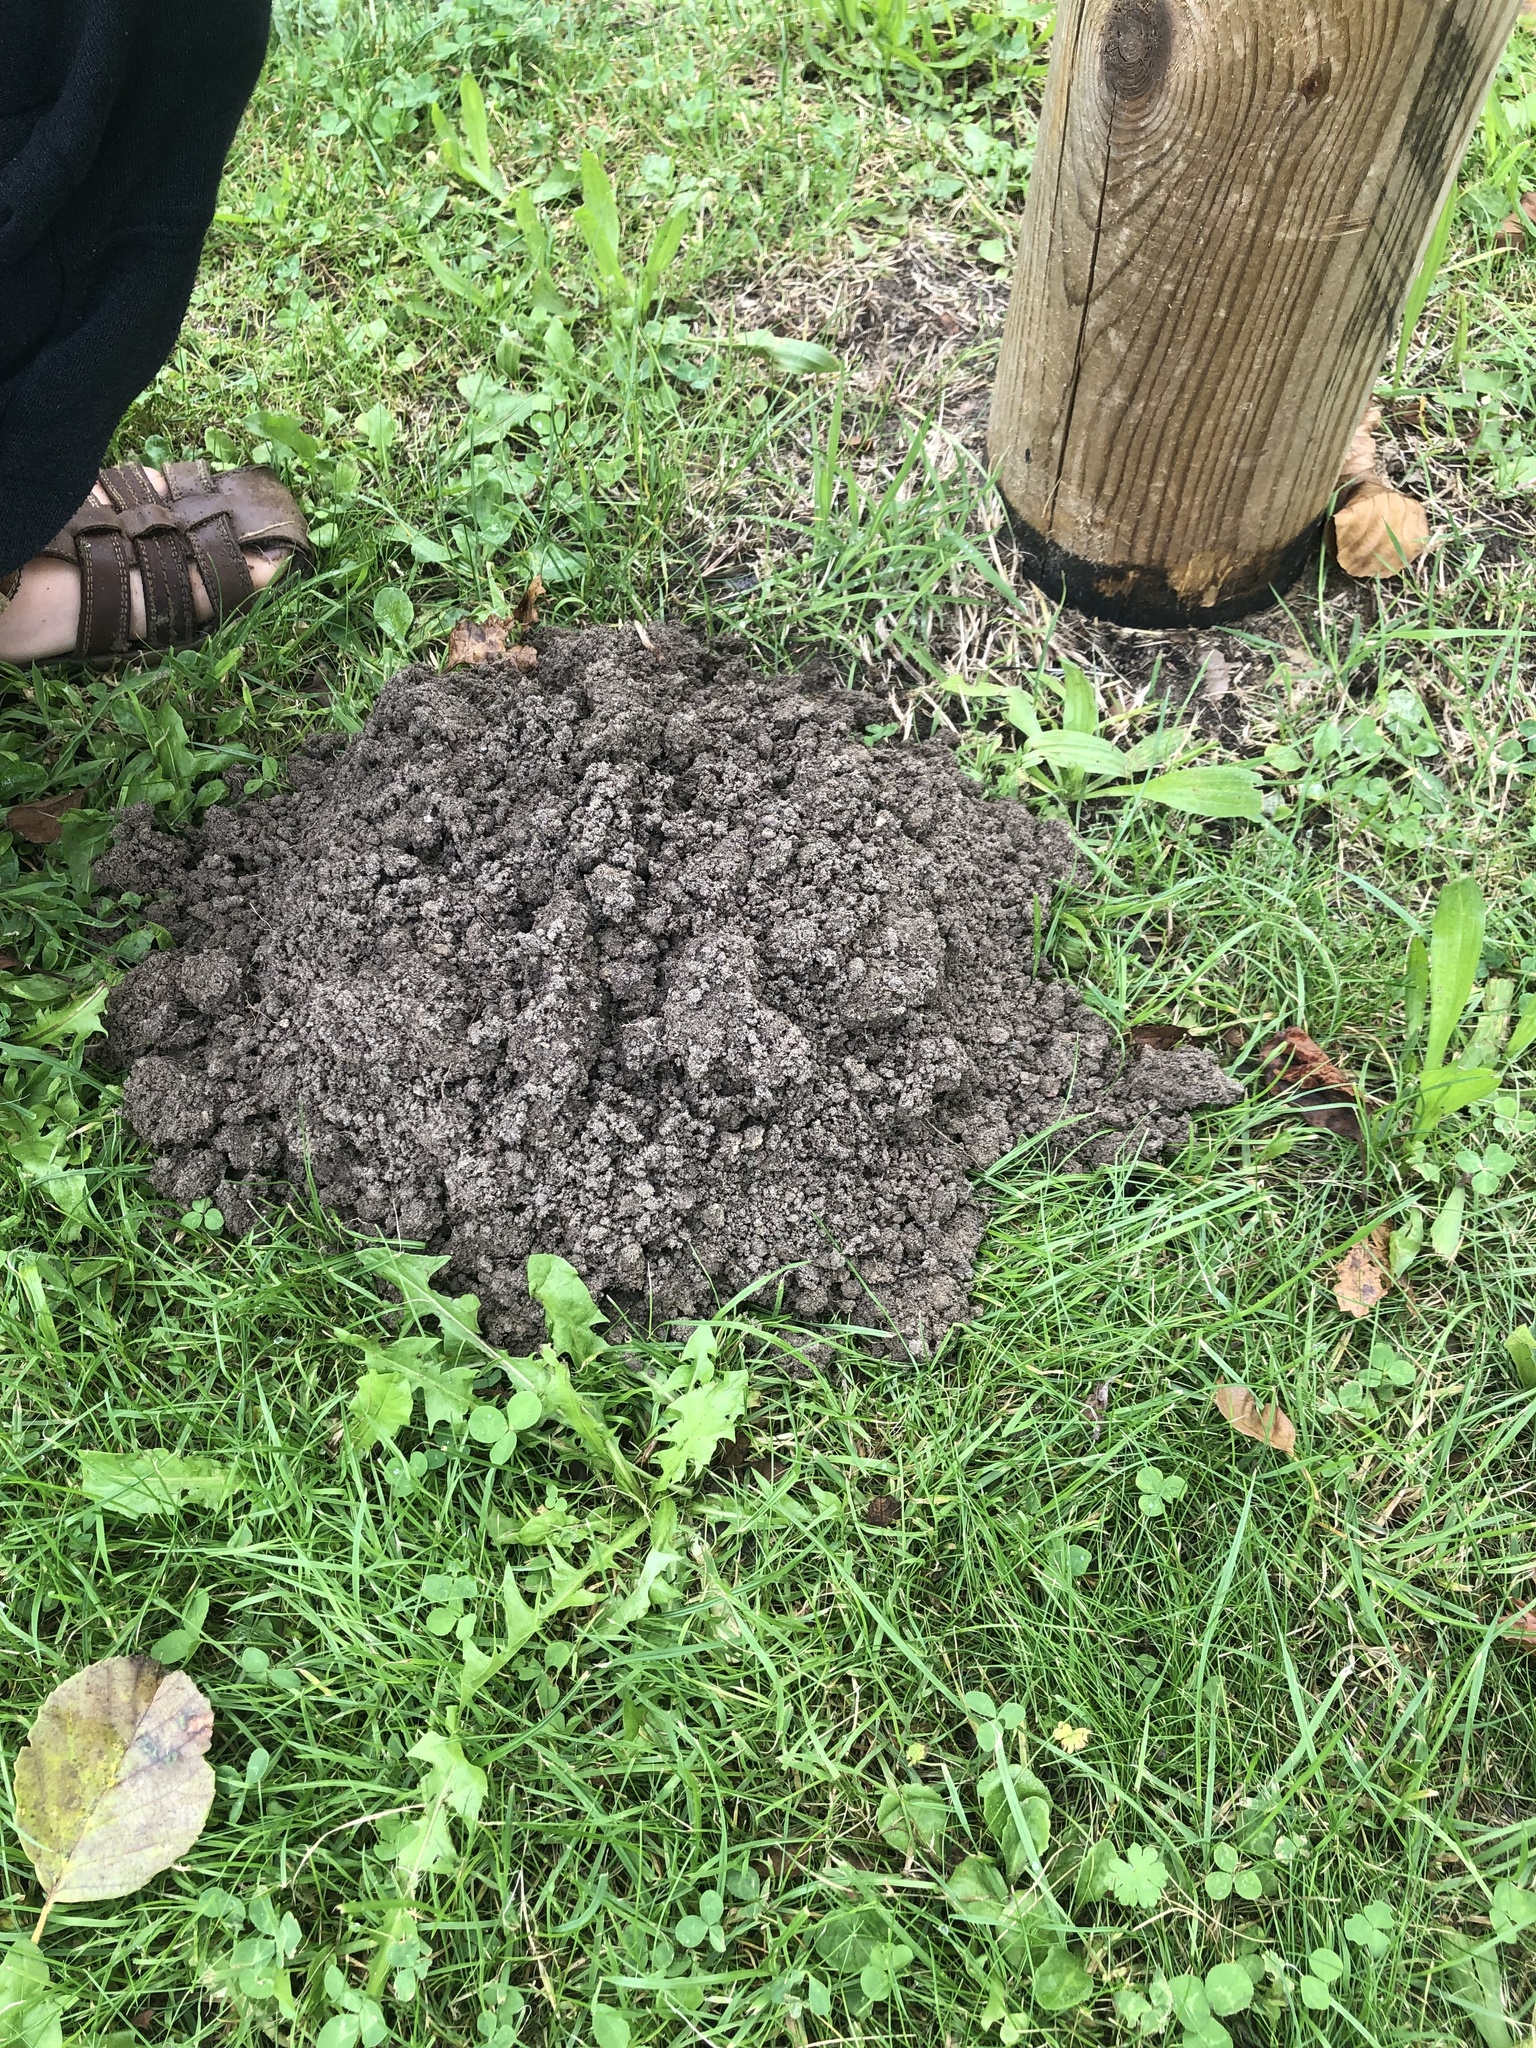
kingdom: Animalia
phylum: Chordata
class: Mammalia
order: Soricomorpha
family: Talpidae
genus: Talpa
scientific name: Talpa europaea
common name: European mole
